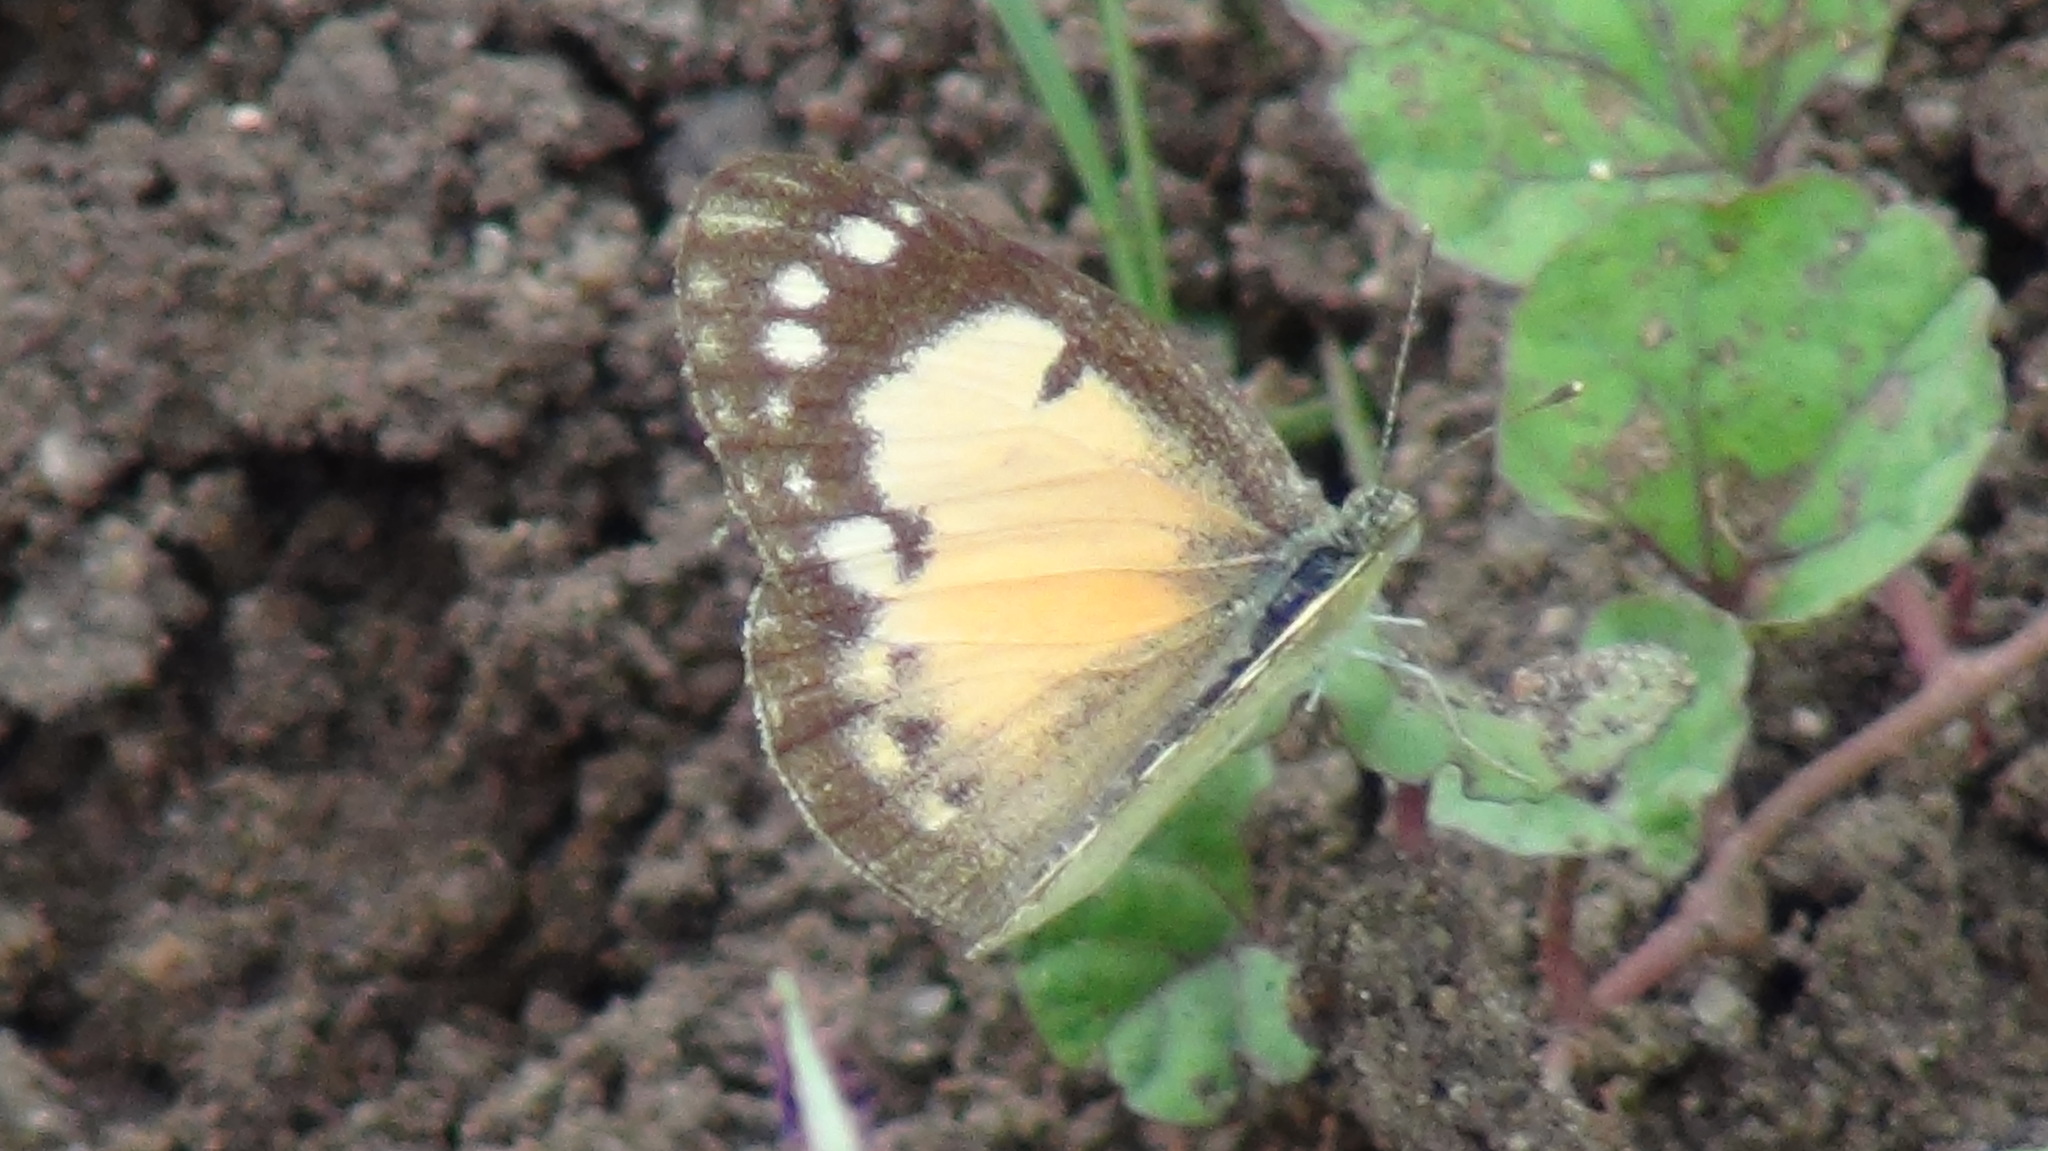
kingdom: Animalia
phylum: Arthropoda
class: Insecta
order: Lepidoptera
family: Pieridae
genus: Colotis
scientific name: Colotis amata
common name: Small salmon arab
